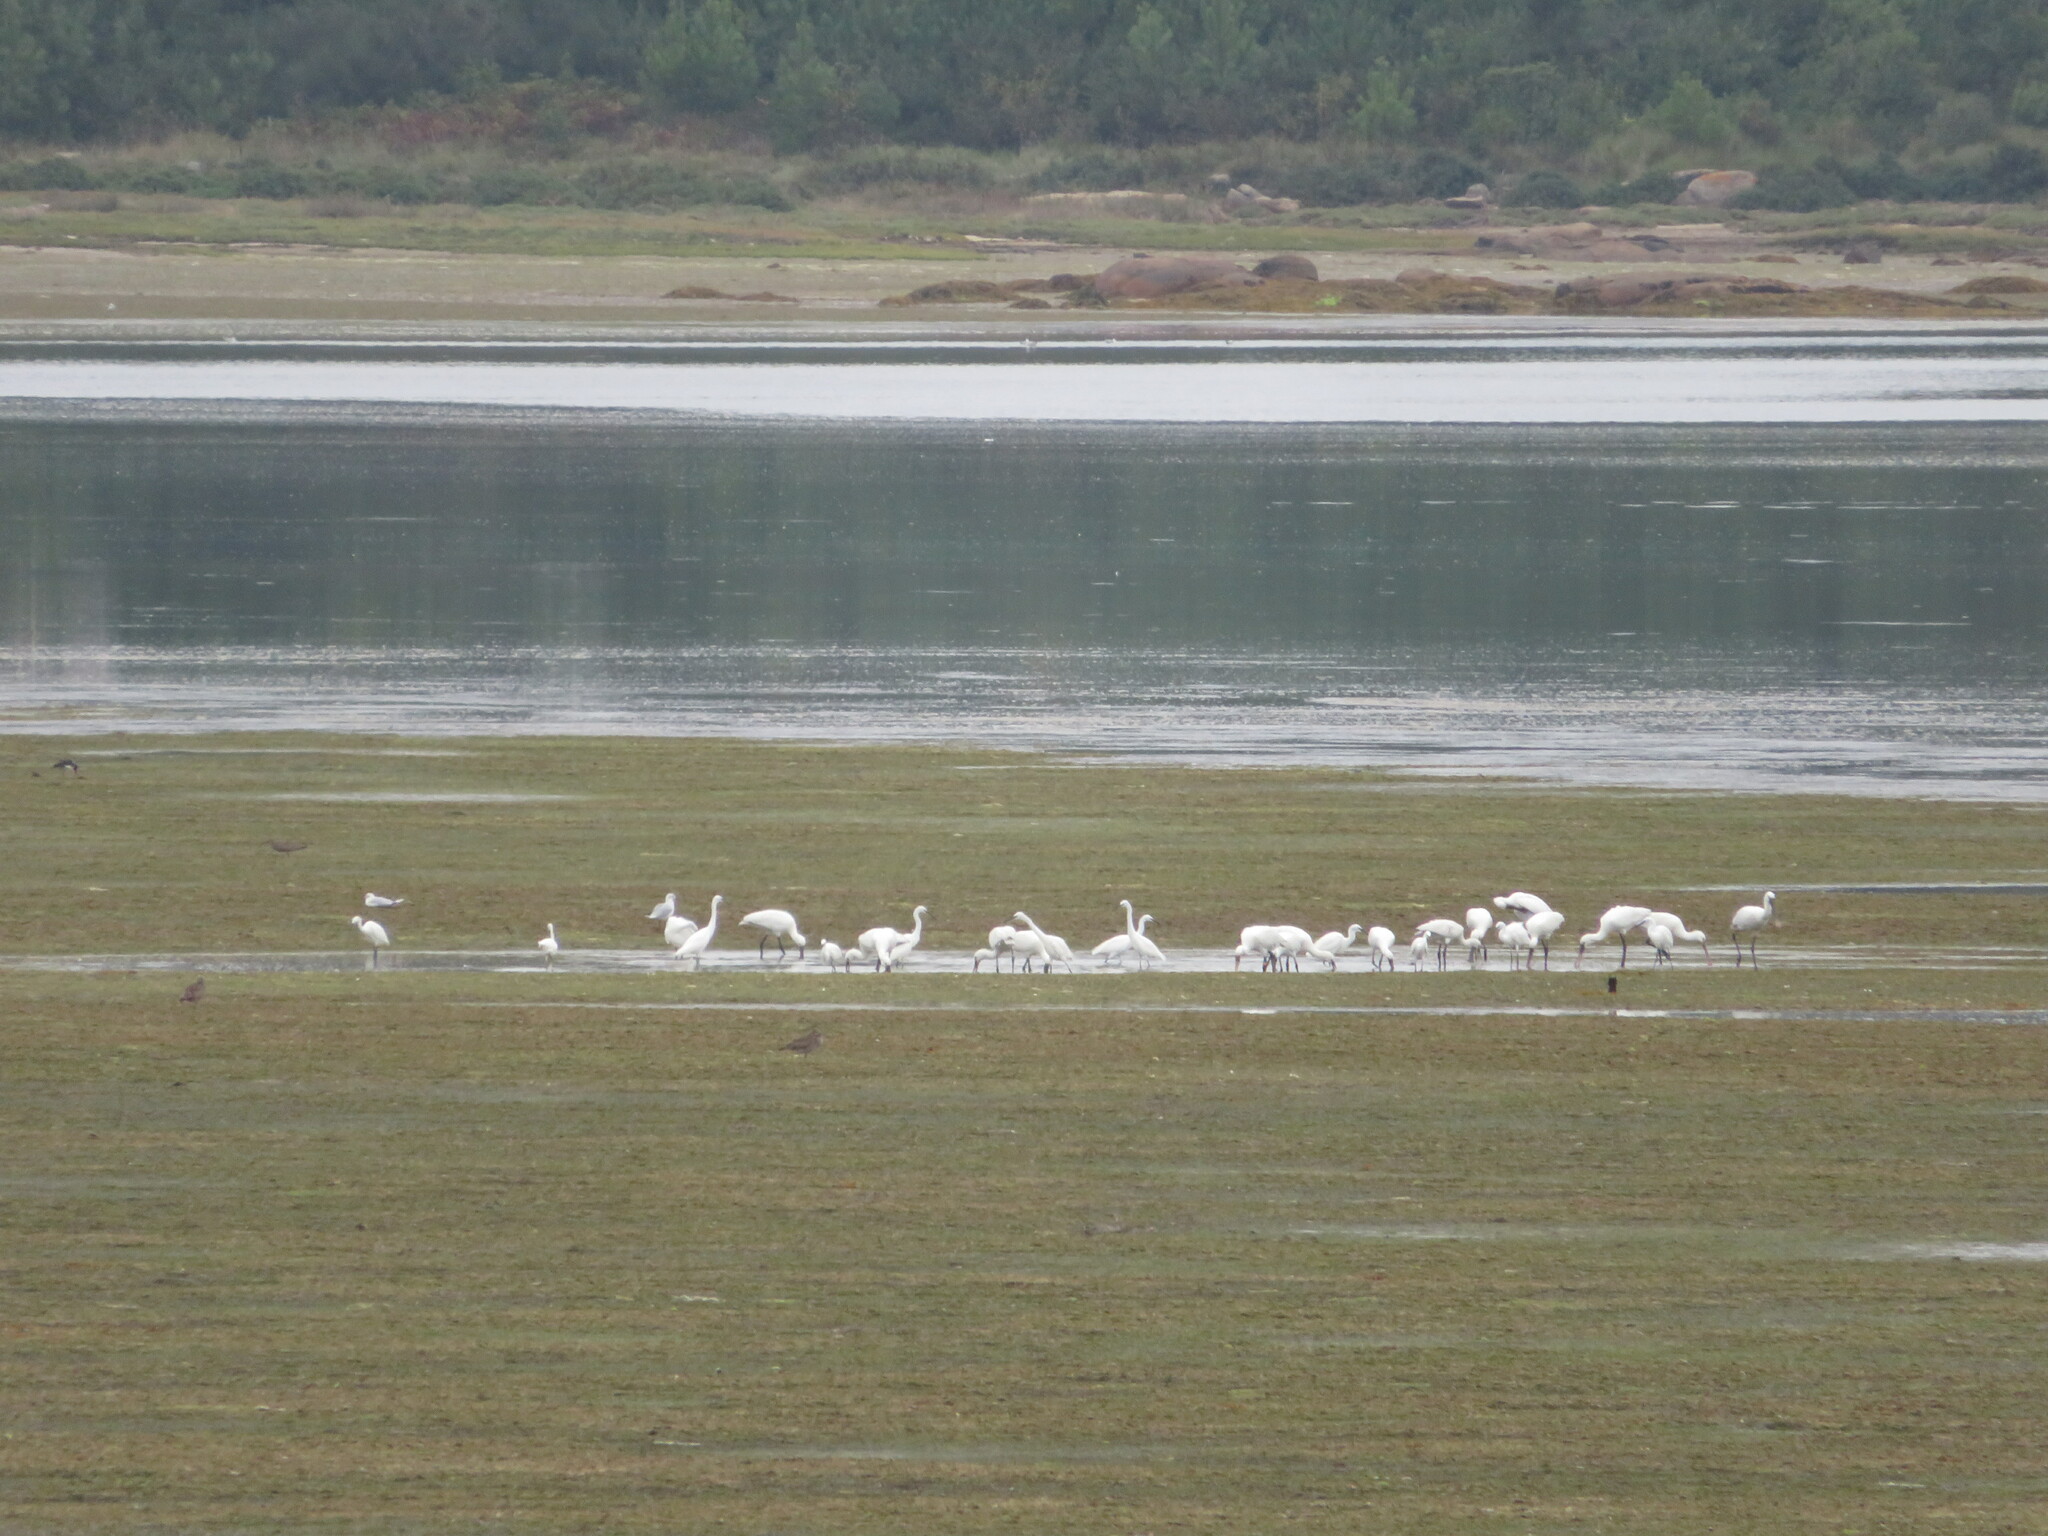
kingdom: Animalia
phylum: Chordata
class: Aves
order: Pelecaniformes
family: Threskiornithidae
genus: Platalea
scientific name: Platalea leucorodia
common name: Eurasian spoonbill
